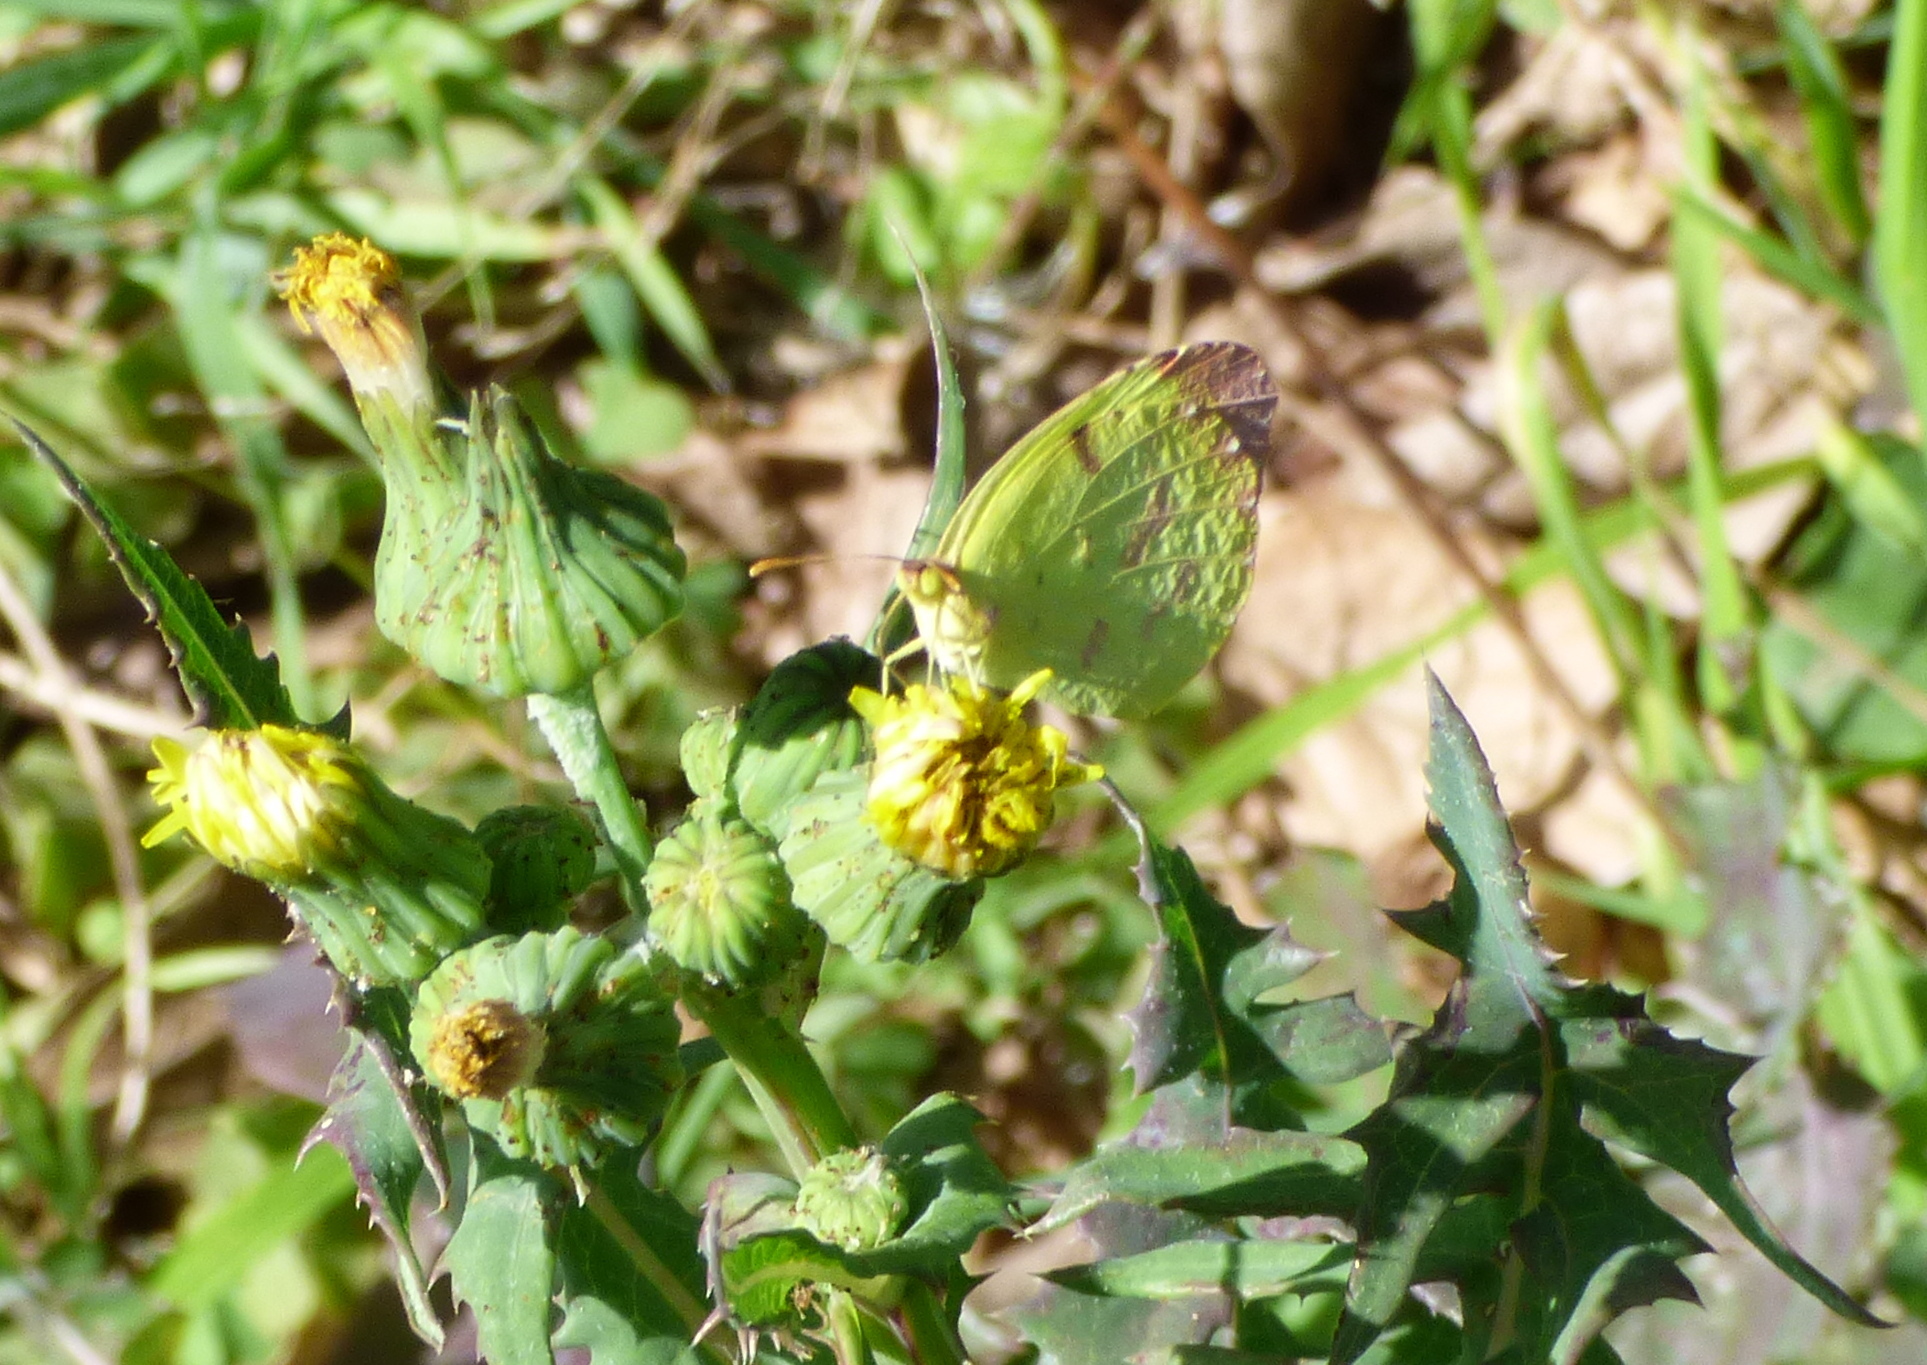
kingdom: Animalia
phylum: Arthropoda
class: Insecta
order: Lepidoptera
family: Pieridae
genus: Teriocolias
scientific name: Teriocolias
